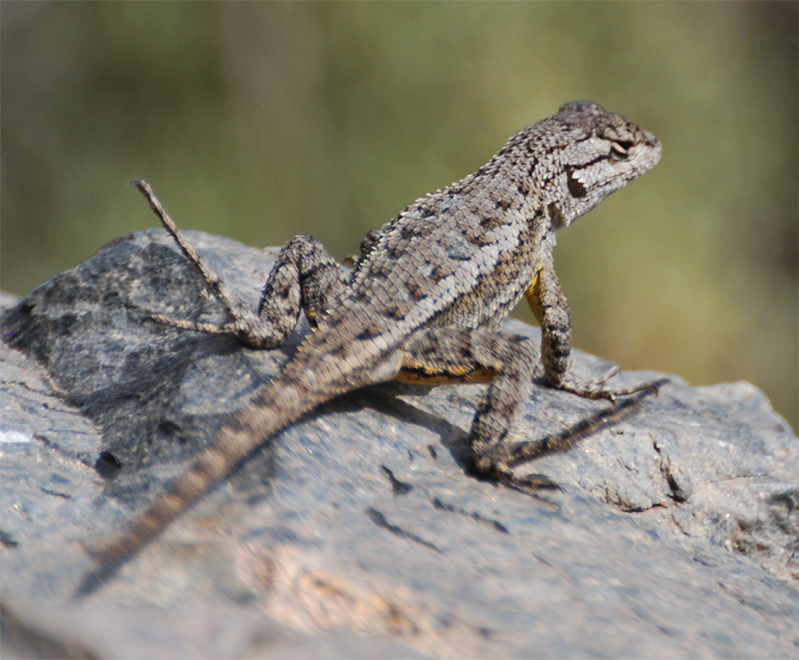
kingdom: Animalia
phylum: Chordata
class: Squamata
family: Phrynosomatidae
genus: Sceloporus
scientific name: Sceloporus occidentalis
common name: Western fence lizard
